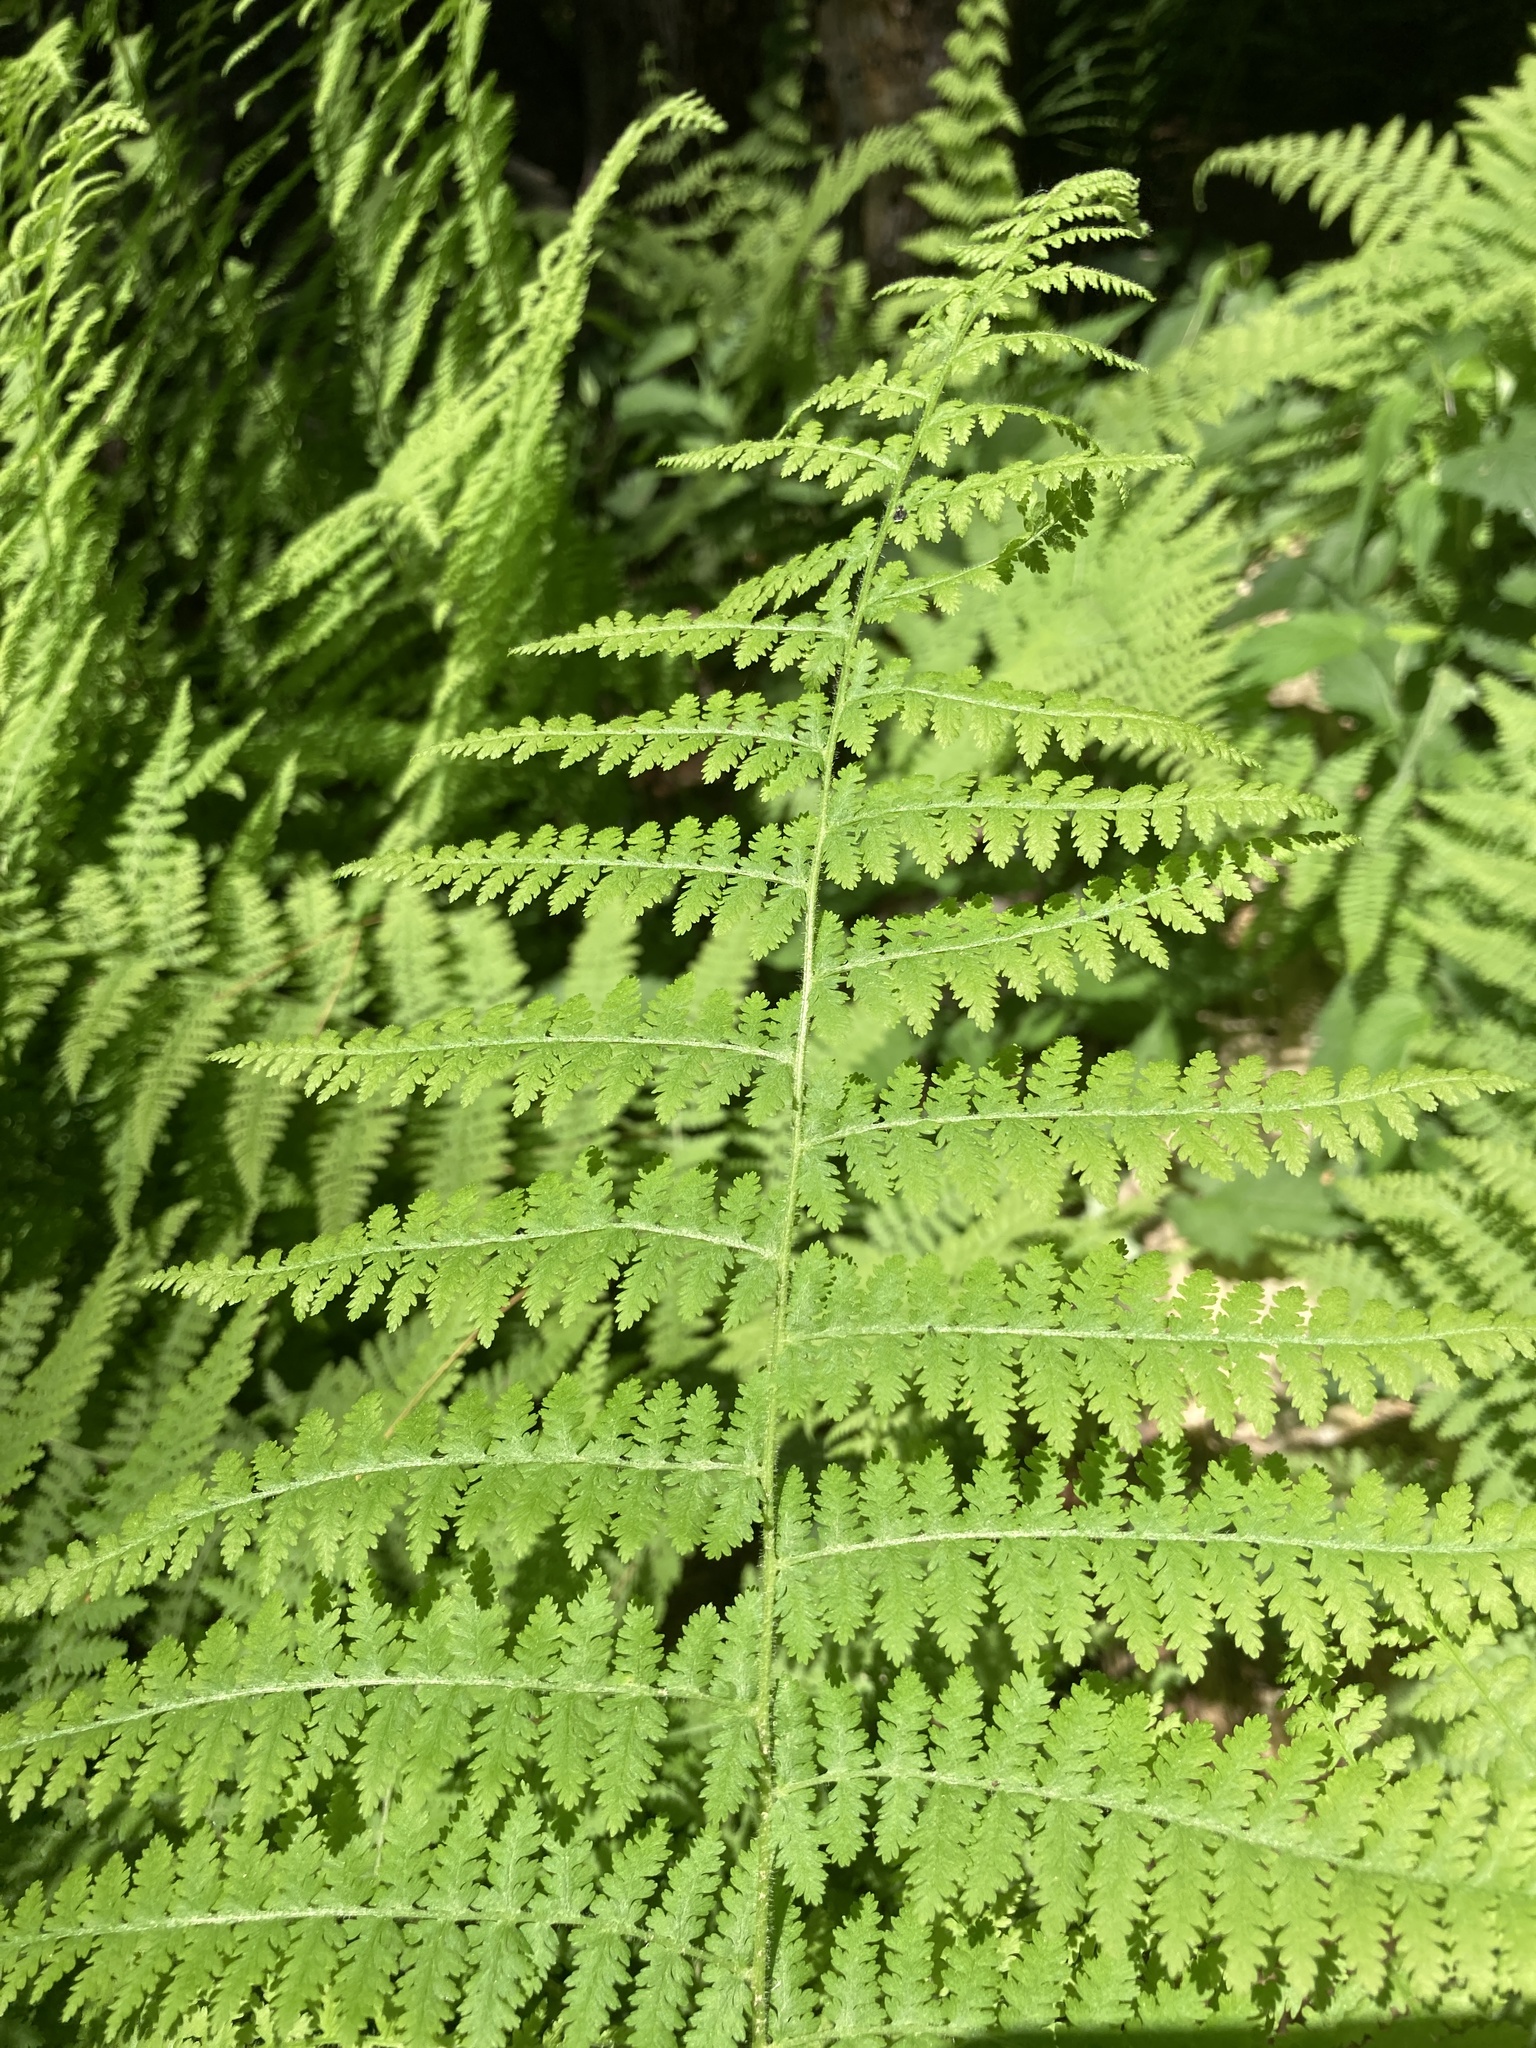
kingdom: Plantae
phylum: Tracheophyta
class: Polypodiopsida
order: Polypodiales
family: Dennstaedtiaceae
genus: Sitobolium
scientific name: Sitobolium punctilobum
